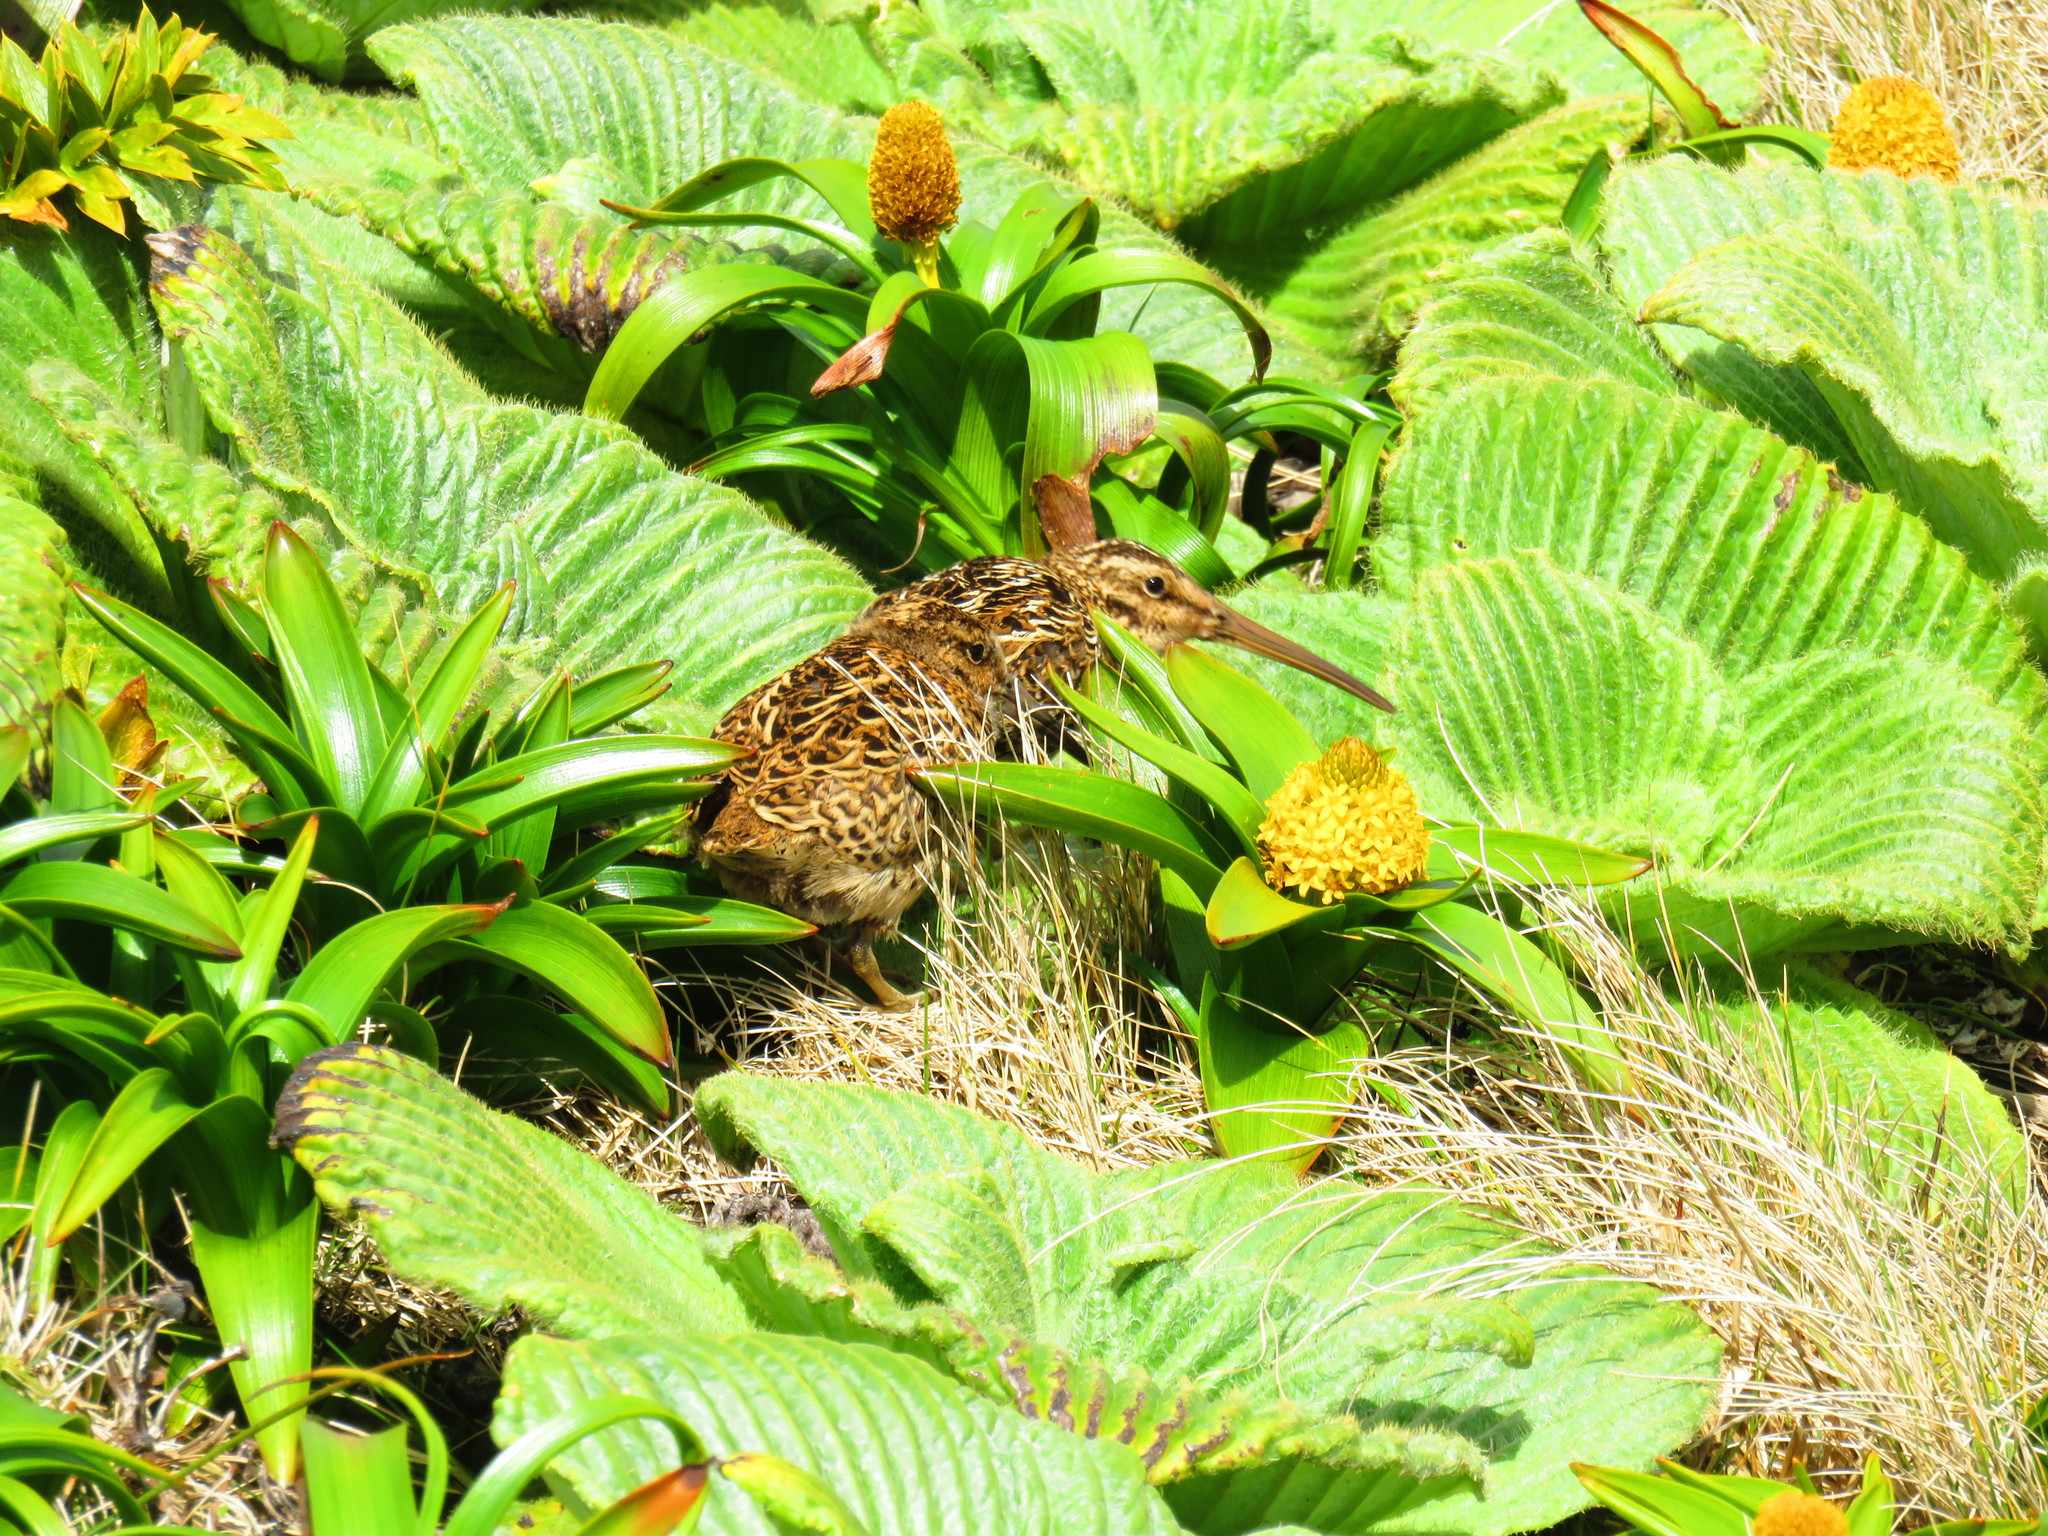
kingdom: Animalia
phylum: Chordata
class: Aves
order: Charadriiformes
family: Scolopacidae
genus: Coenocorypha
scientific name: Coenocorypha aucklandica
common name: Subantarctic snipe
